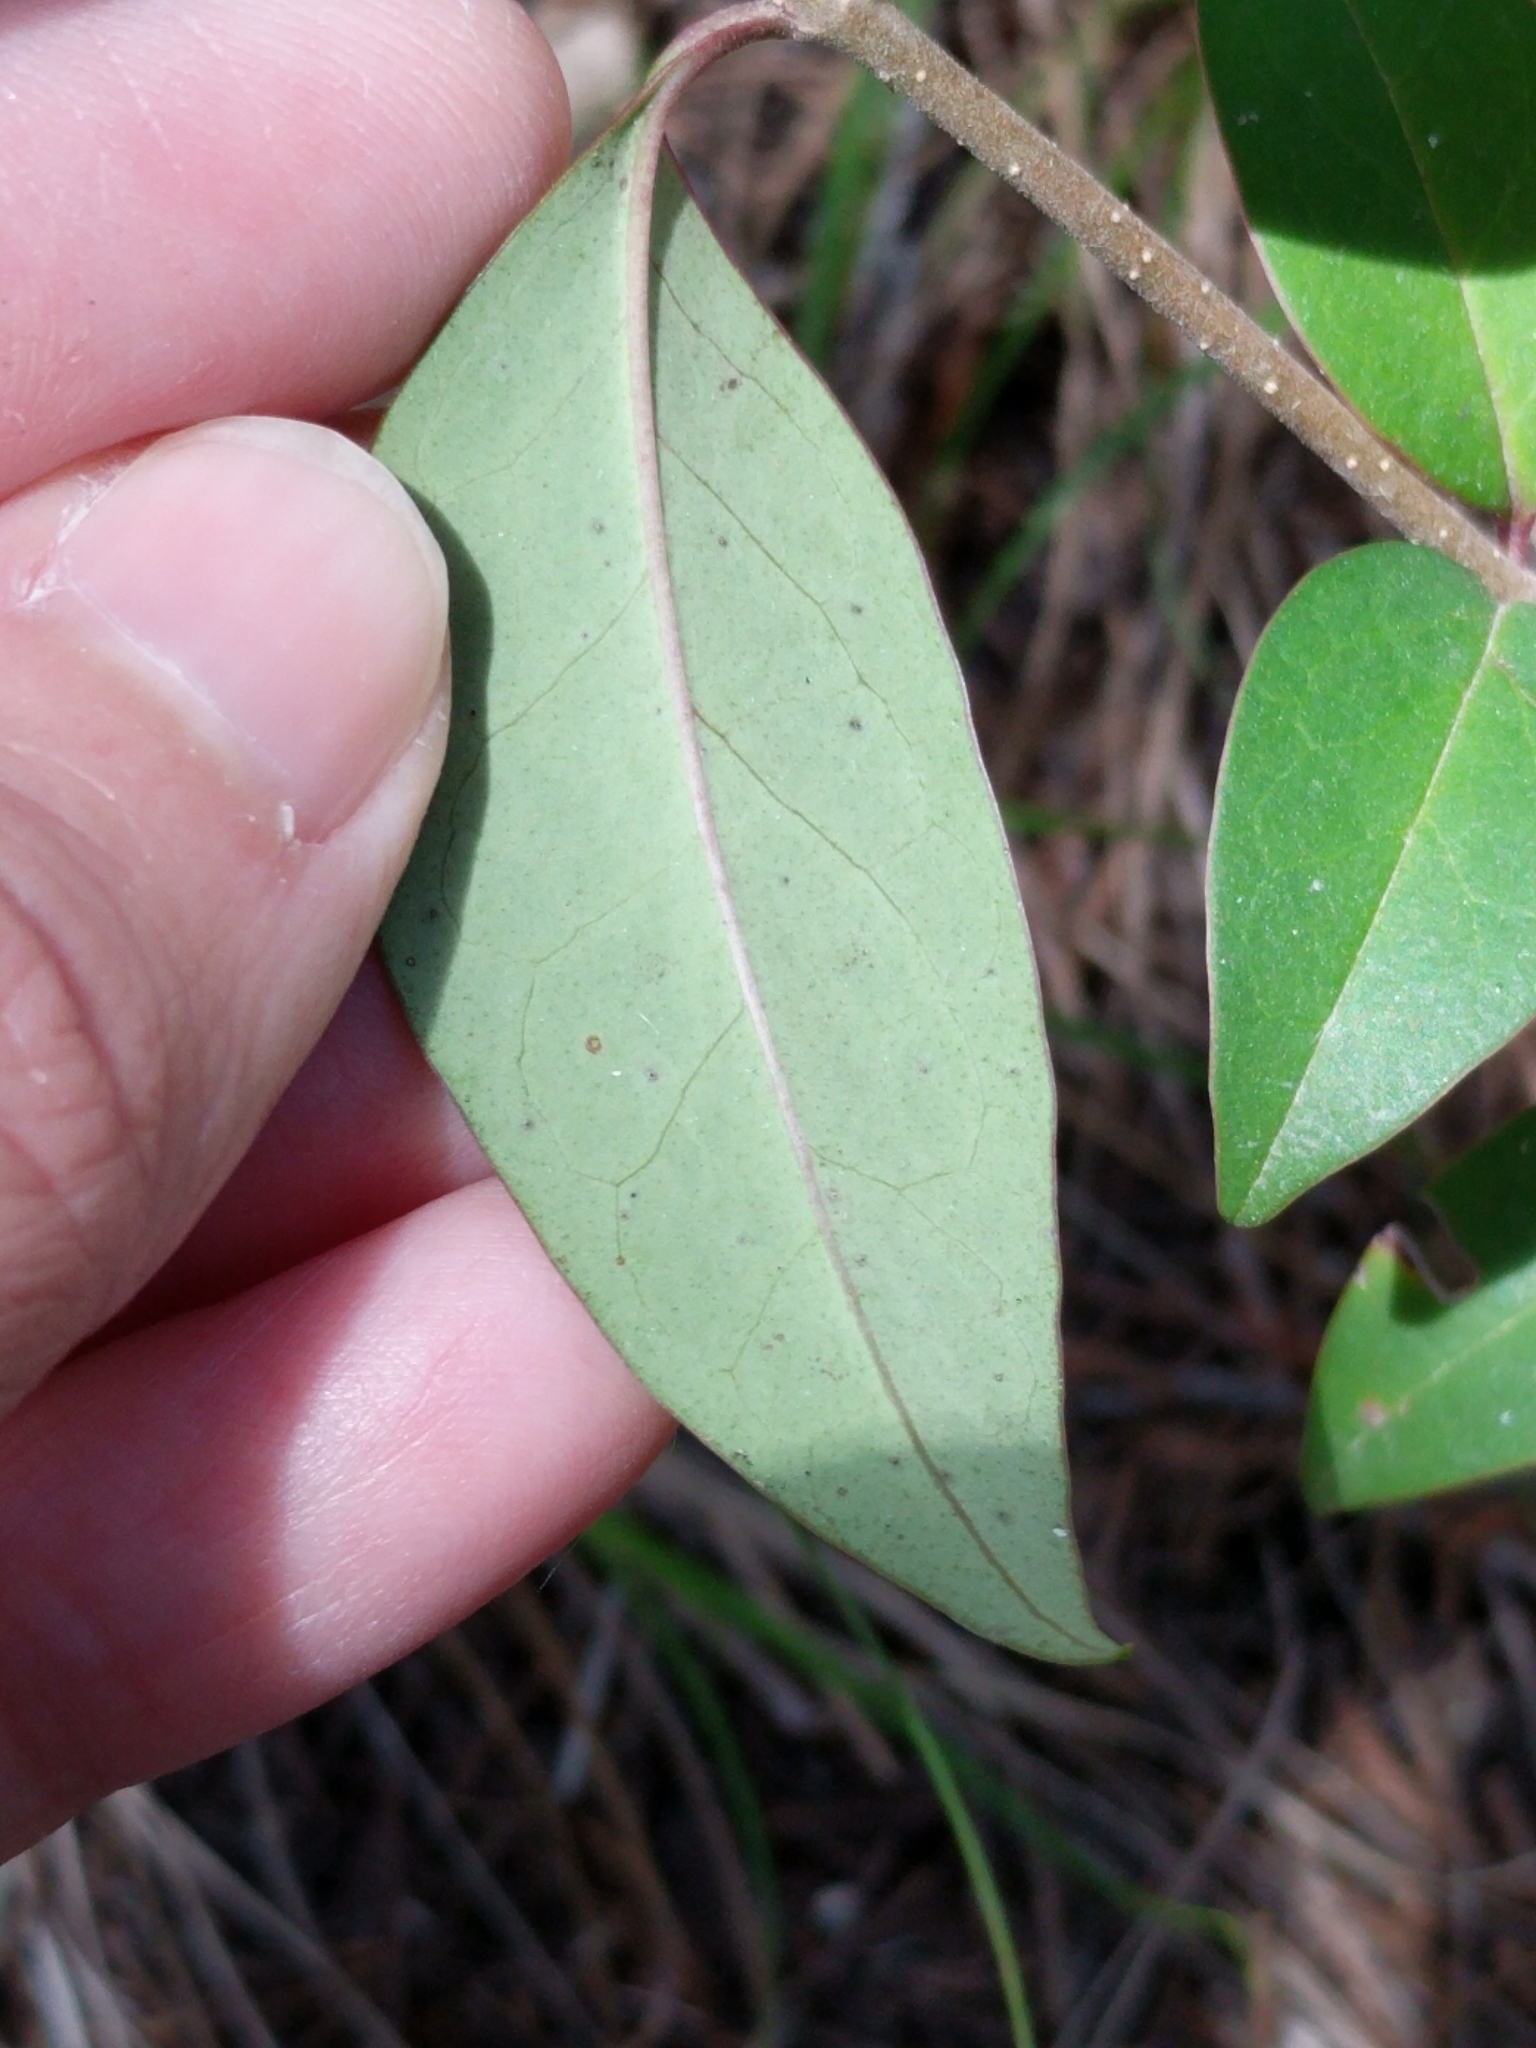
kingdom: Plantae
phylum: Tracheophyta
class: Magnoliopsida
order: Lamiales
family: Oleaceae
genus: Ligustrum
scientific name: Ligustrum lucidum
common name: Glossy privet
